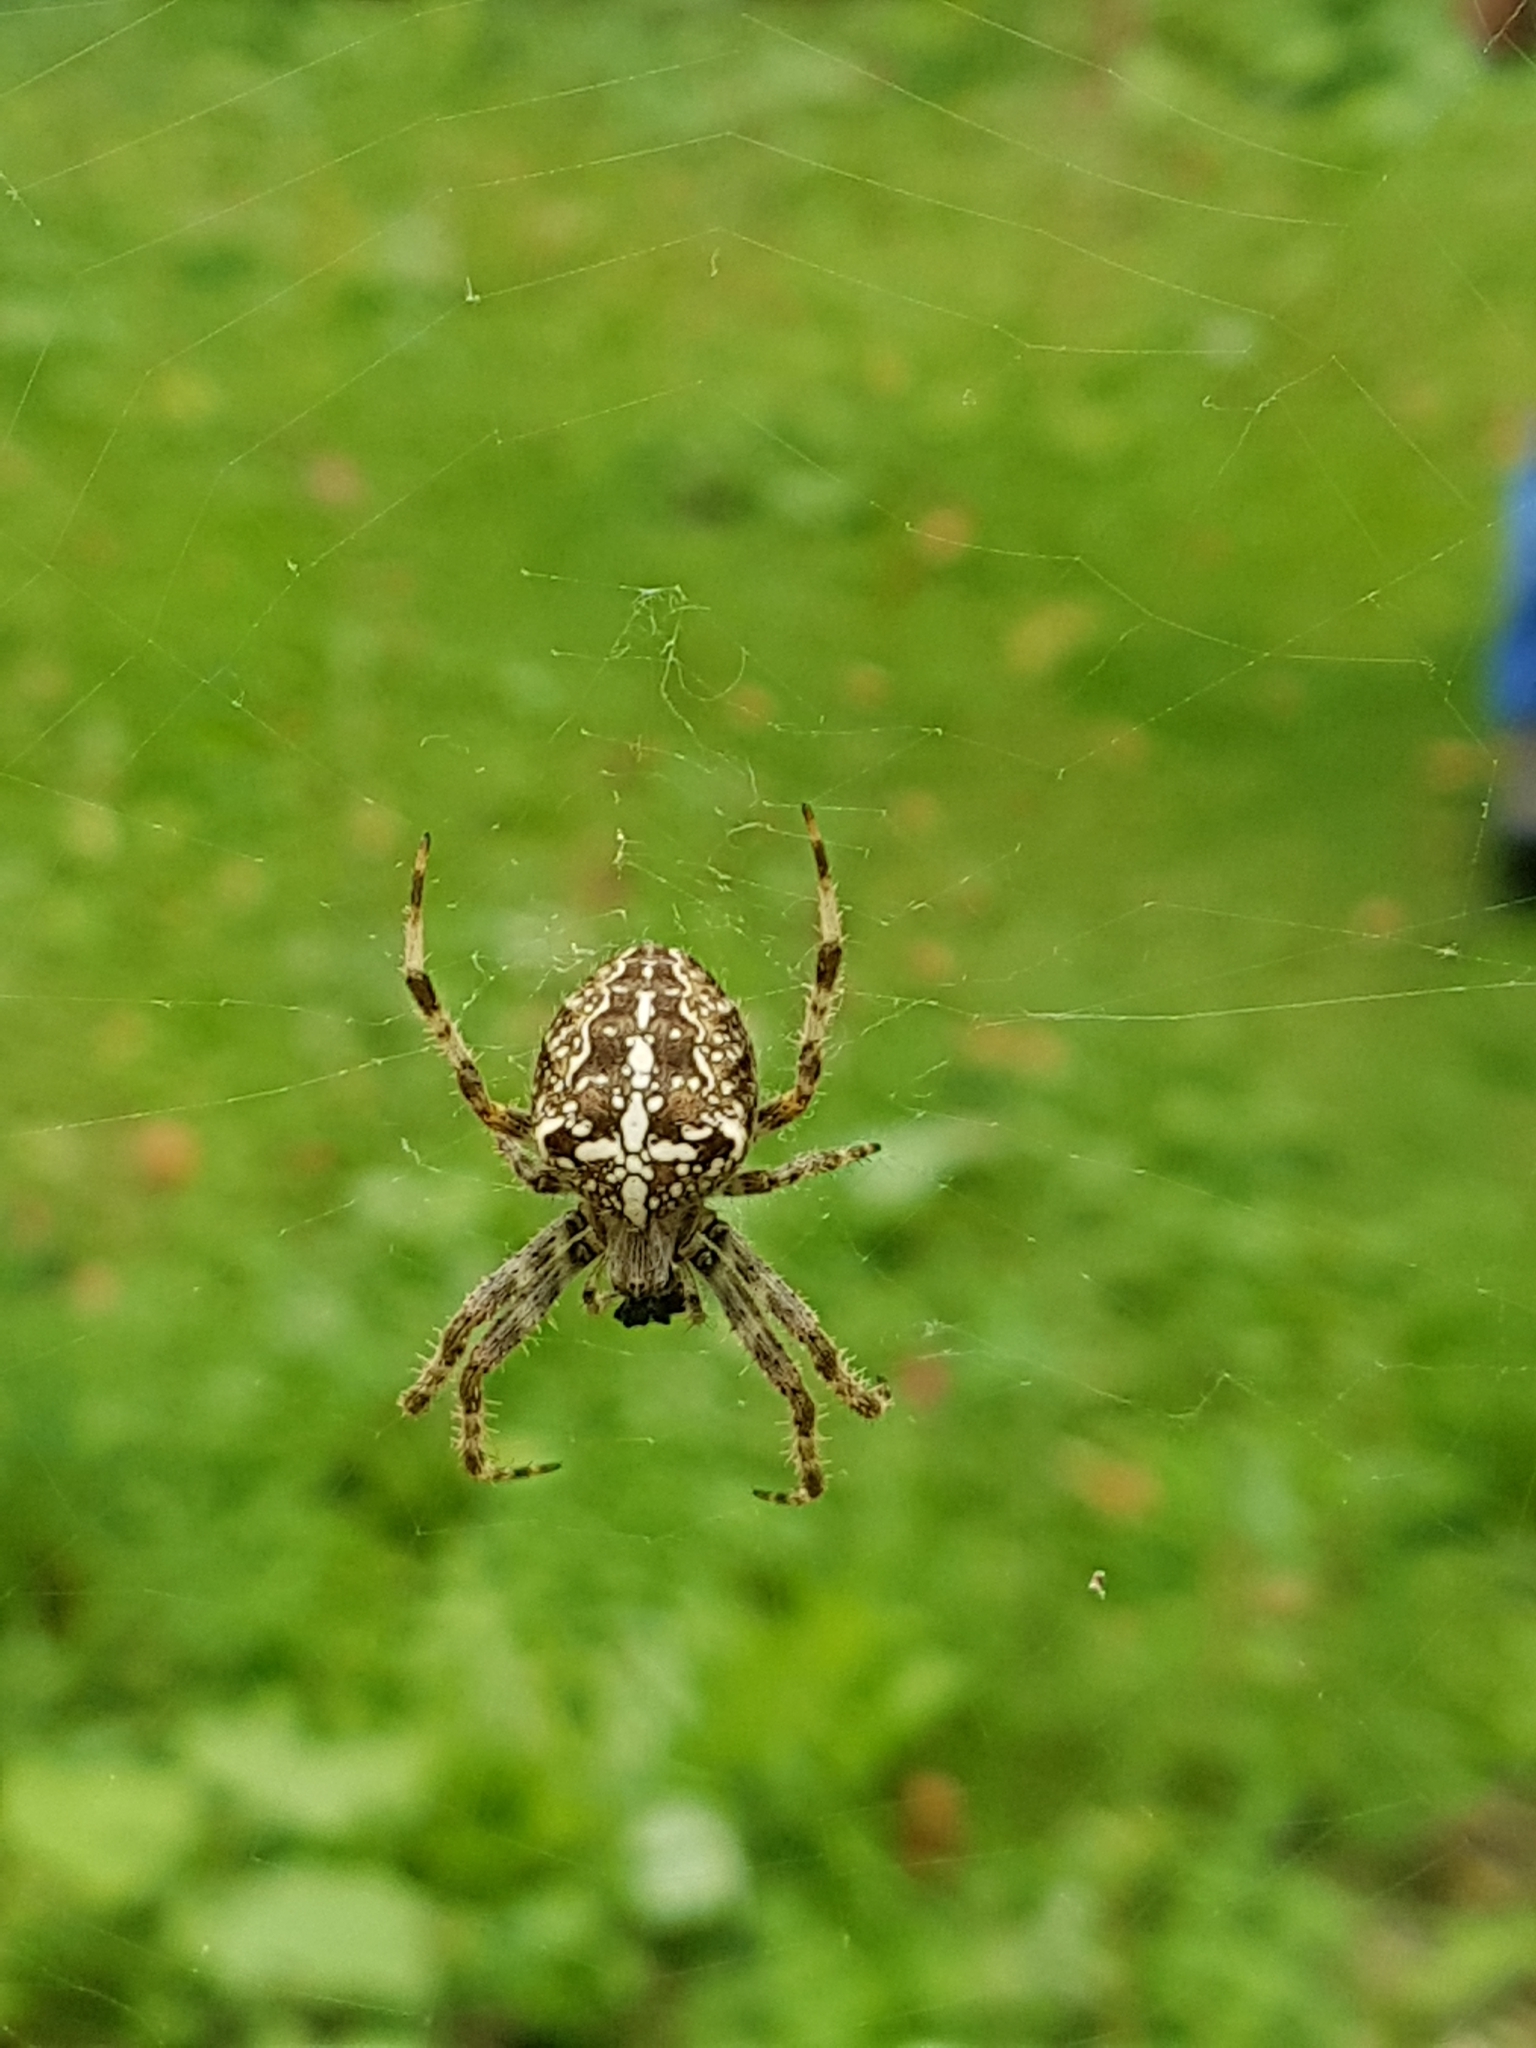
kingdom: Animalia
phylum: Arthropoda
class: Arachnida
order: Araneae
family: Araneidae
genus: Araneus
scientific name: Araneus diadematus
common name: Cross orbweaver
